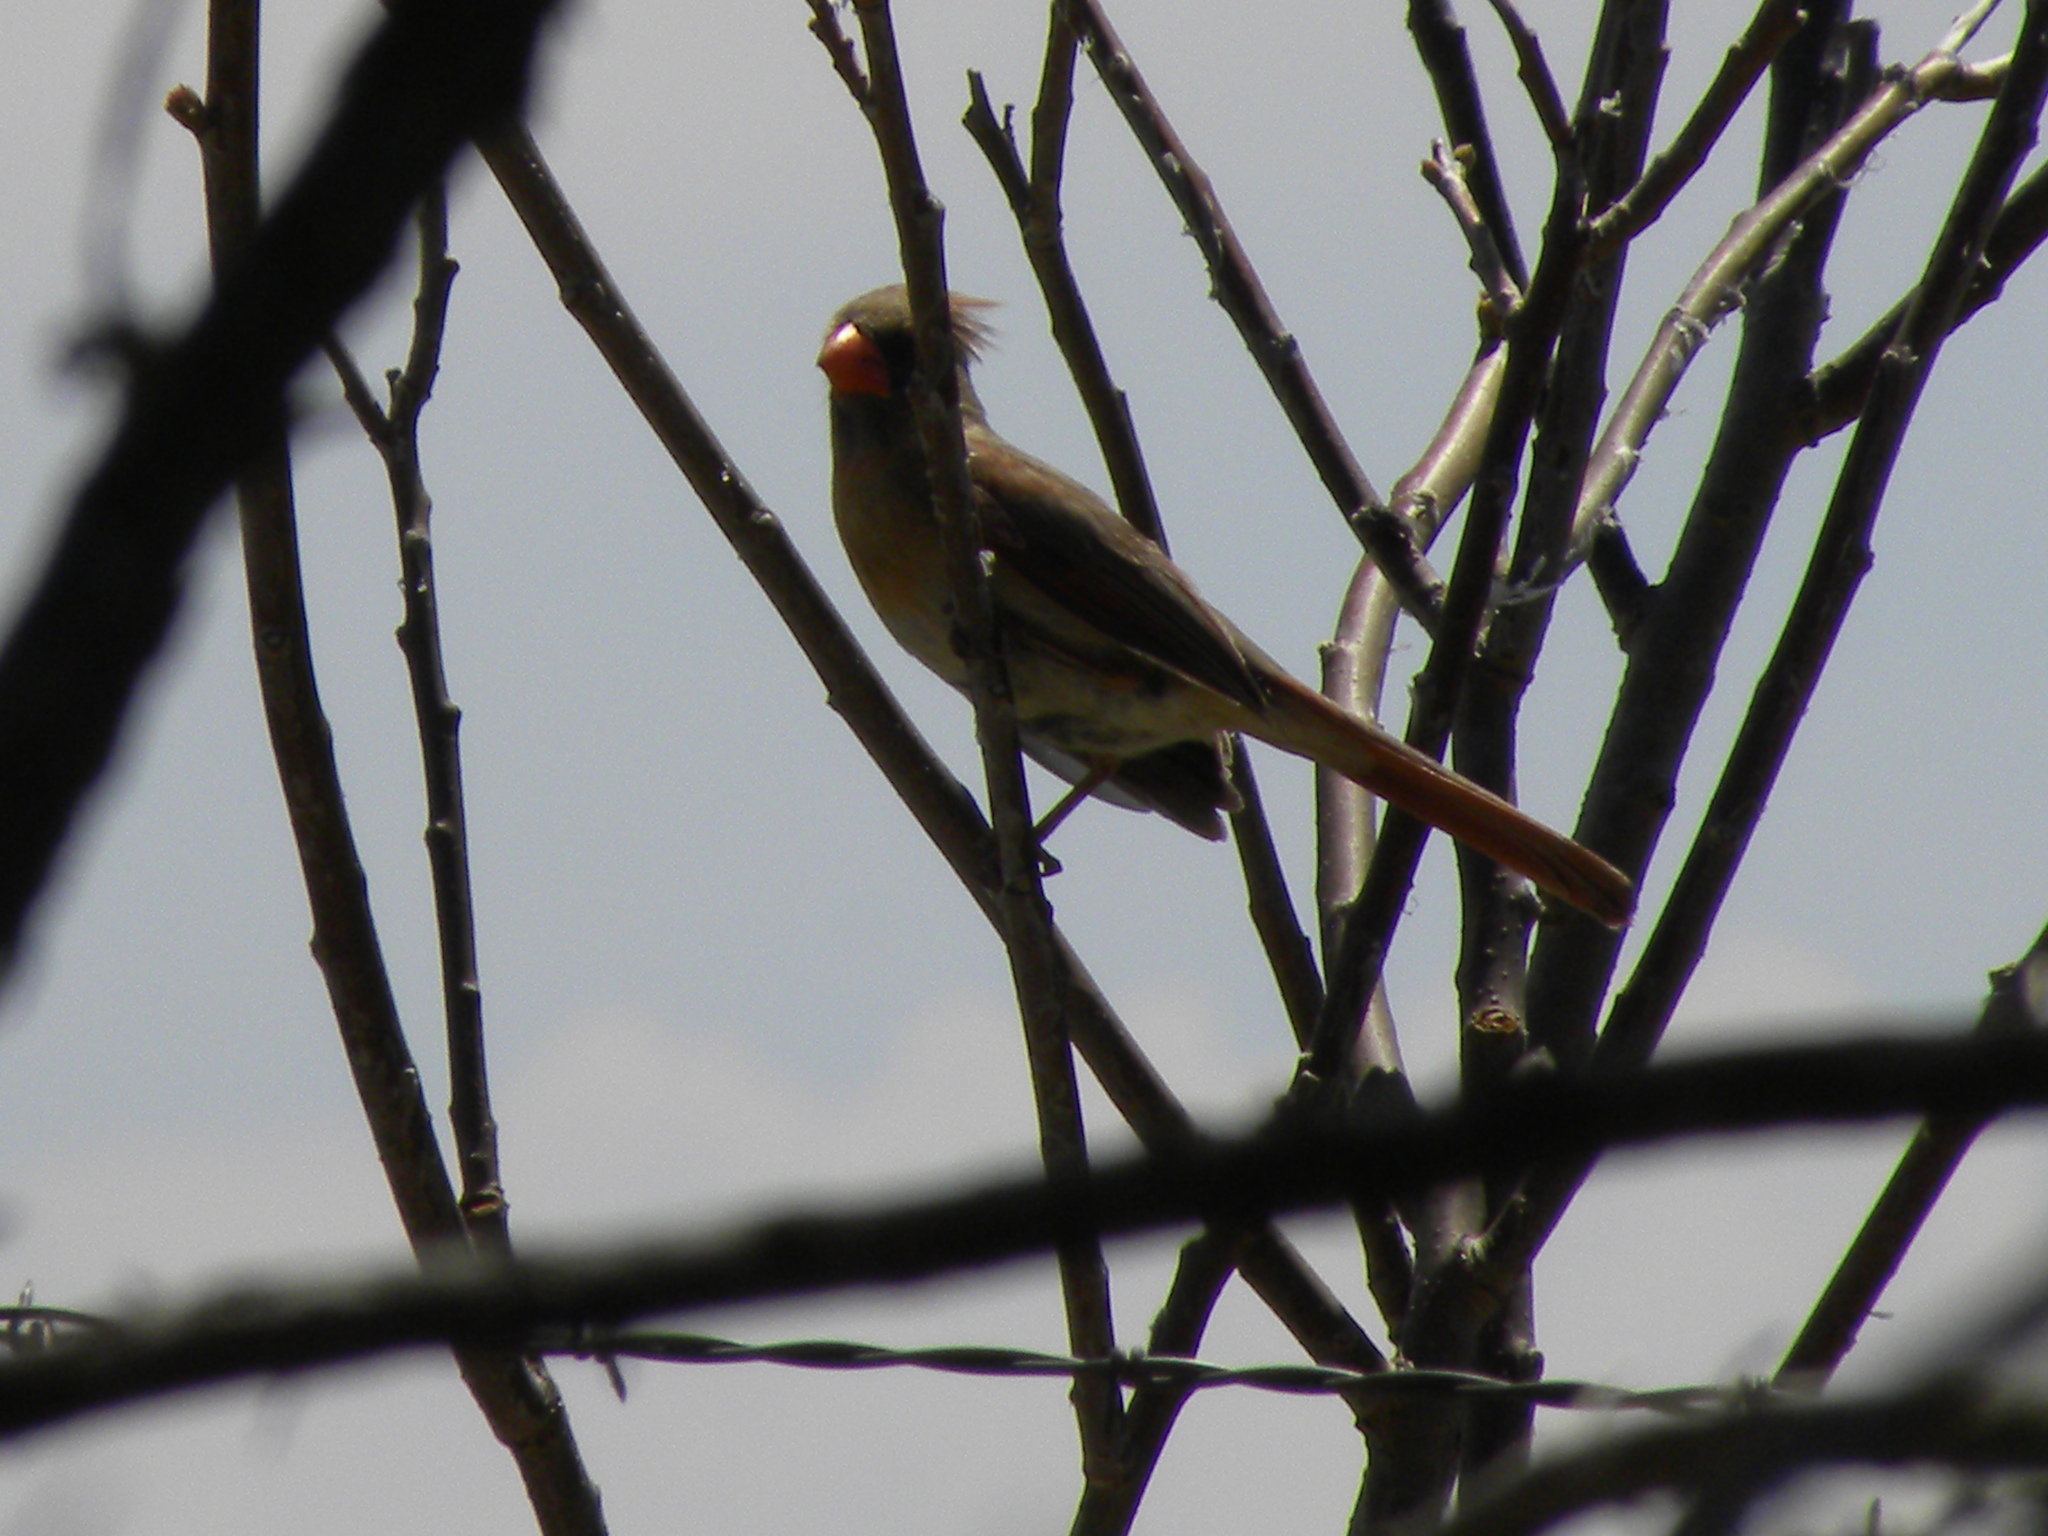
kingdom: Animalia
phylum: Chordata
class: Aves
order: Passeriformes
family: Cardinalidae
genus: Cardinalis
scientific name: Cardinalis cardinalis
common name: Northern cardinal
